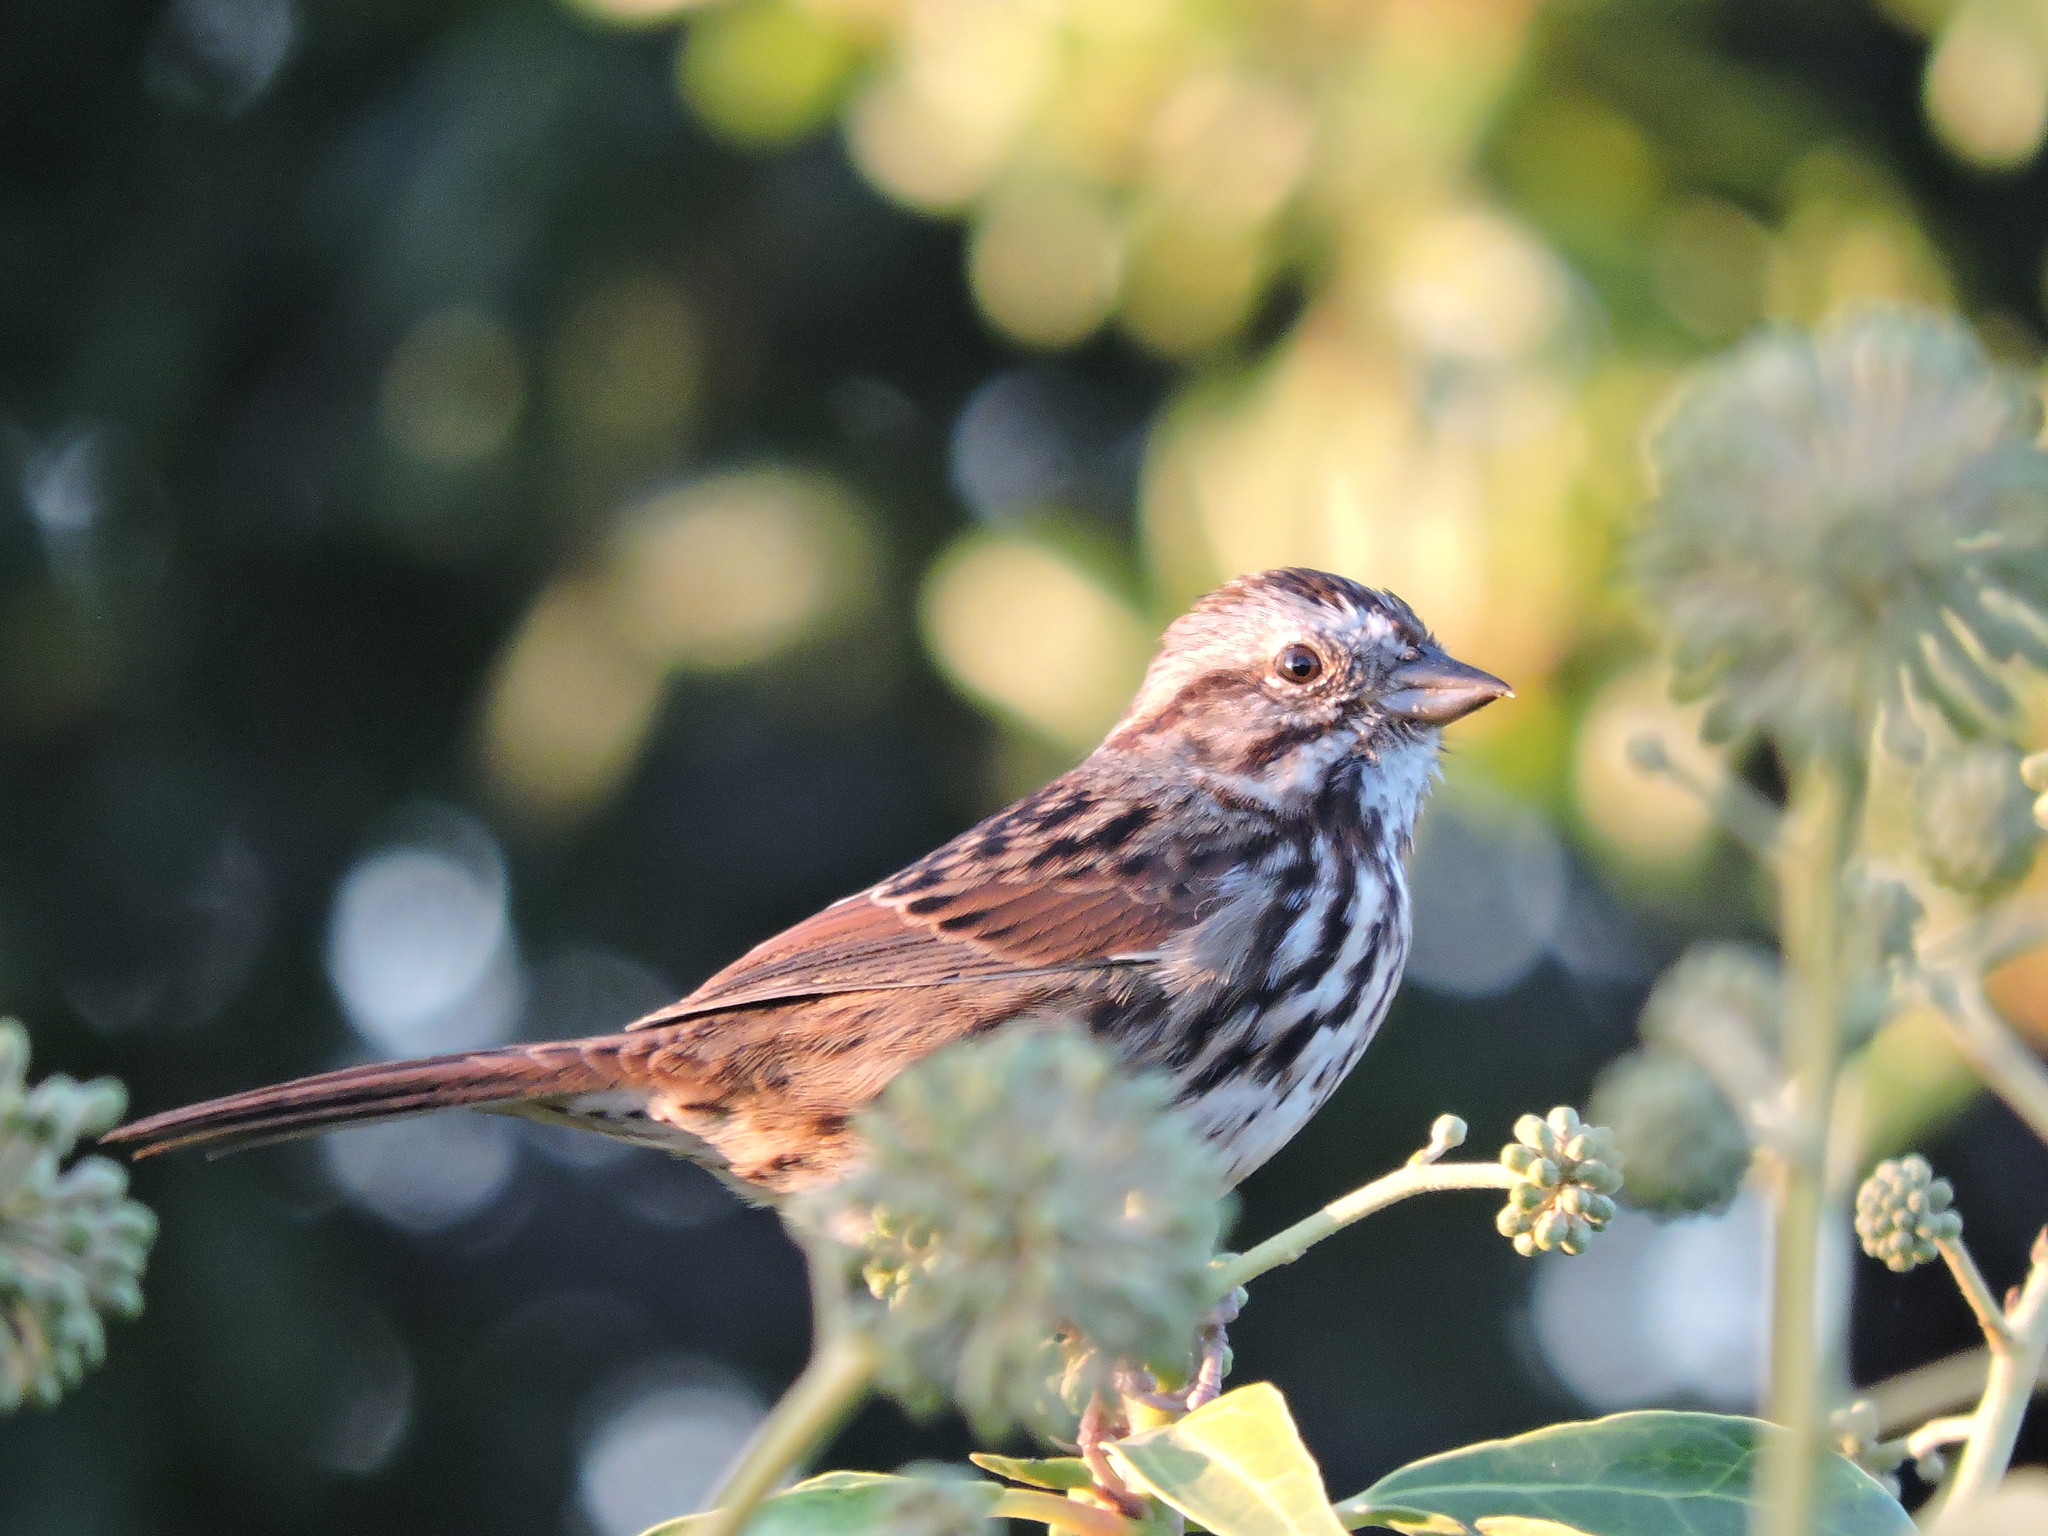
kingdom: Animalia
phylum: Chordata
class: Aves
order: Passeriformes
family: Passerellidae
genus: Melospiza
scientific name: Melospiza melodia
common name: Song sparrow
